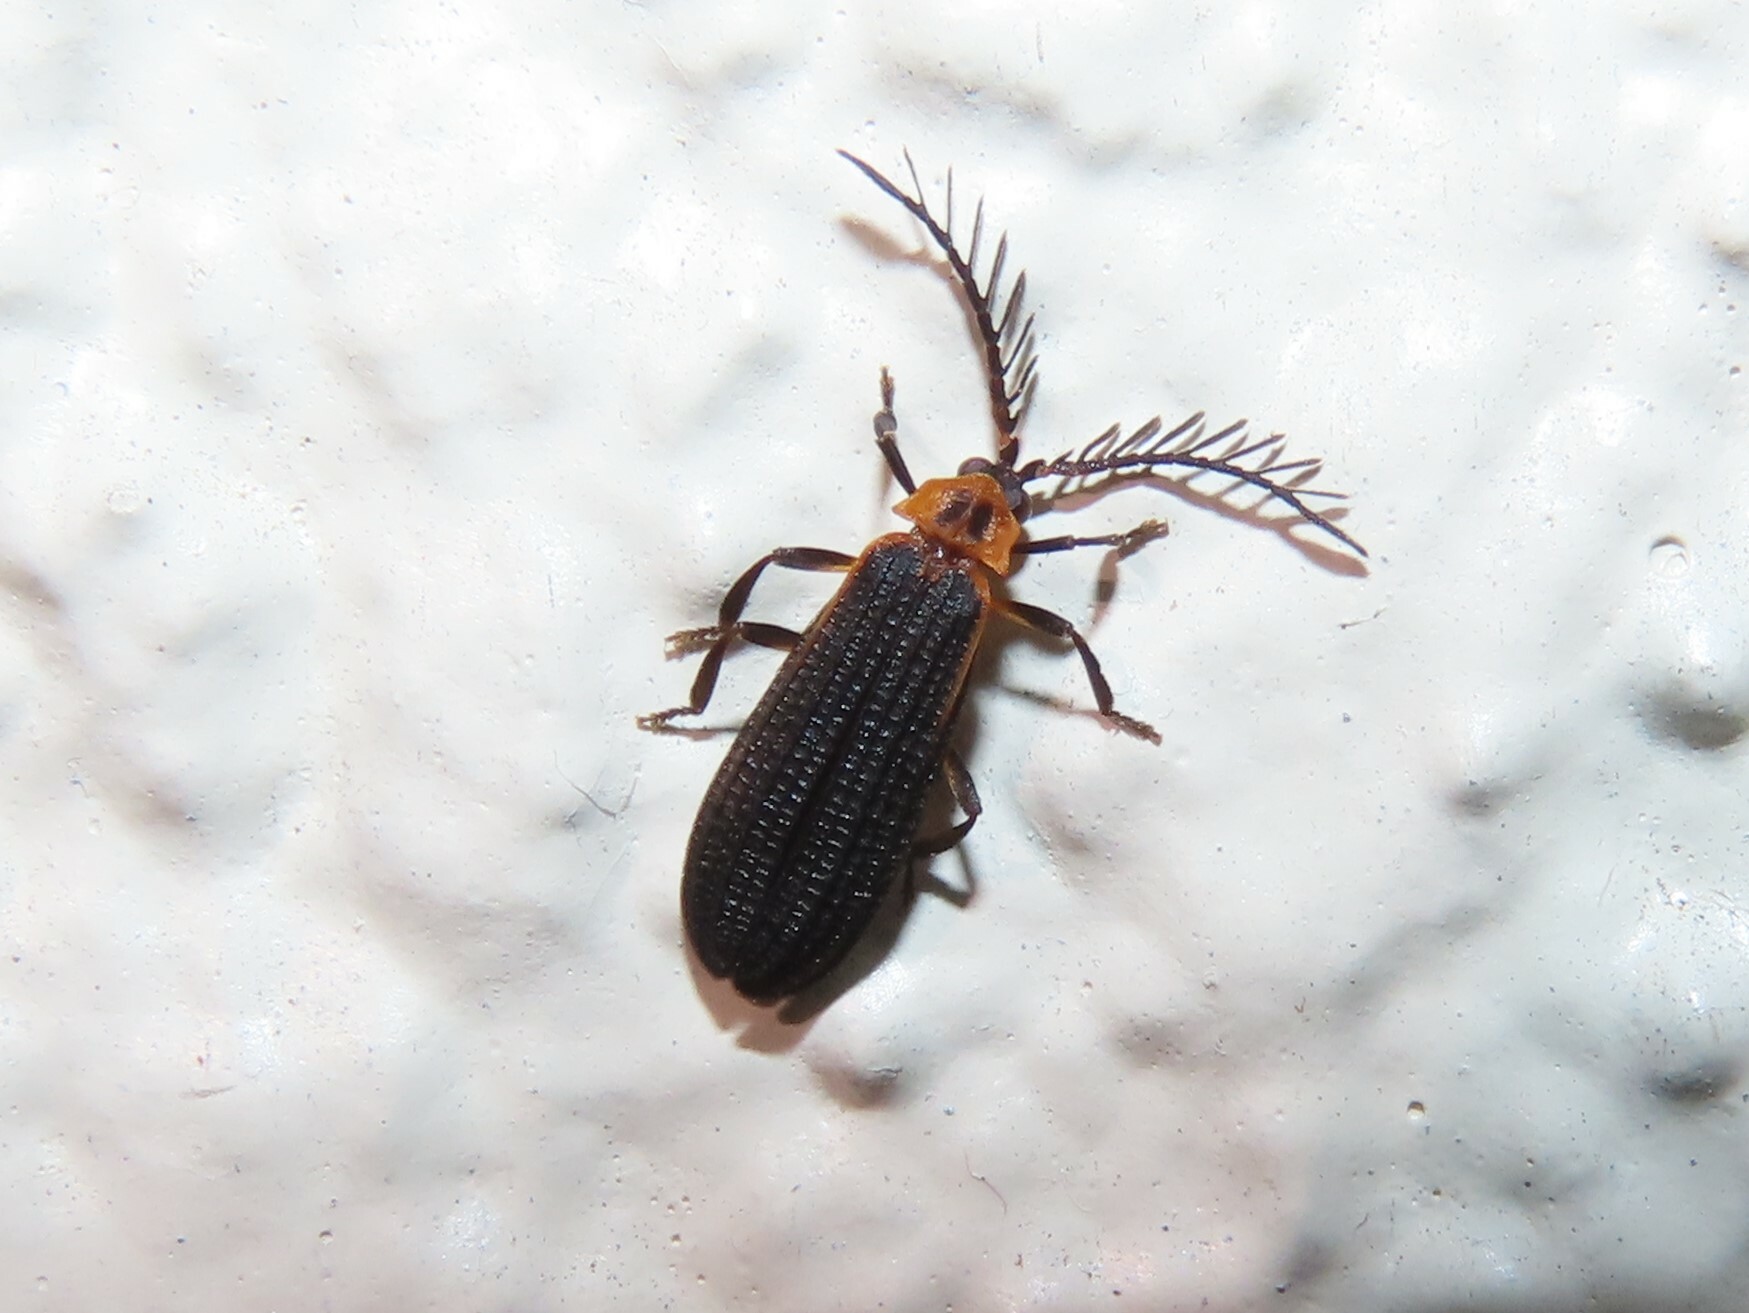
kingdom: Animalia
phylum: Arthropoda
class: Insecta
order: Coleoptera
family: Lycidae
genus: Leptoceletes
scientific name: Leptoceletes basalis
